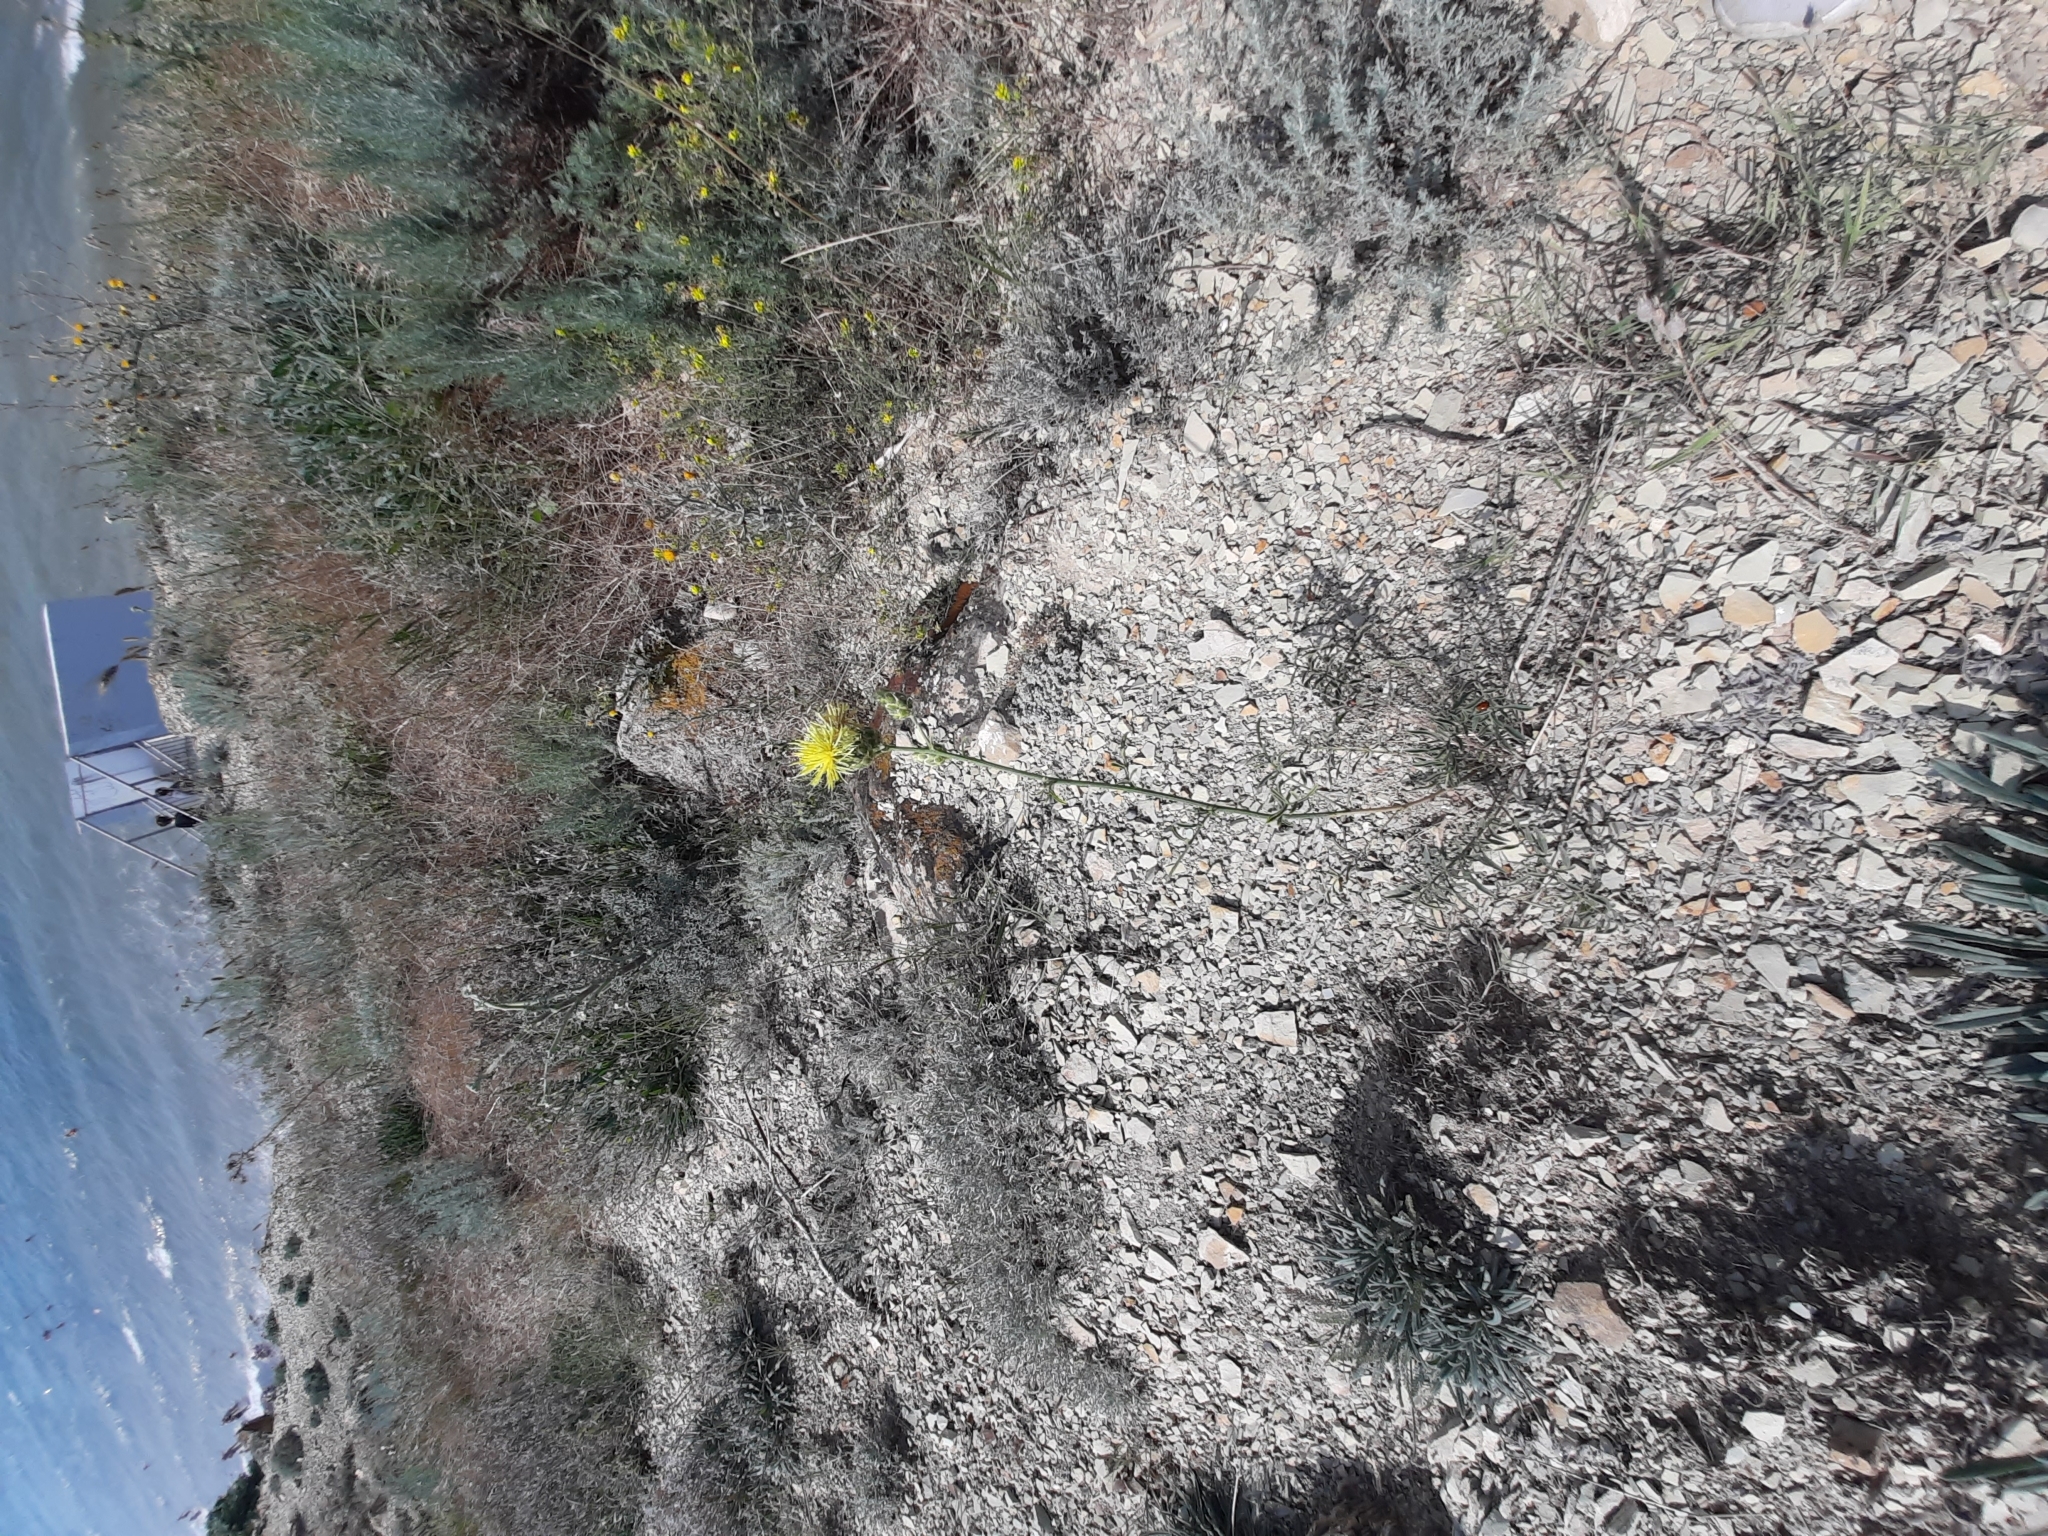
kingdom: Plantae
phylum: Tracheophyta
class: Magnoliopsida
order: Asterales
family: Asteraceae
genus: Centaurea
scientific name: Centaurea salonitana
